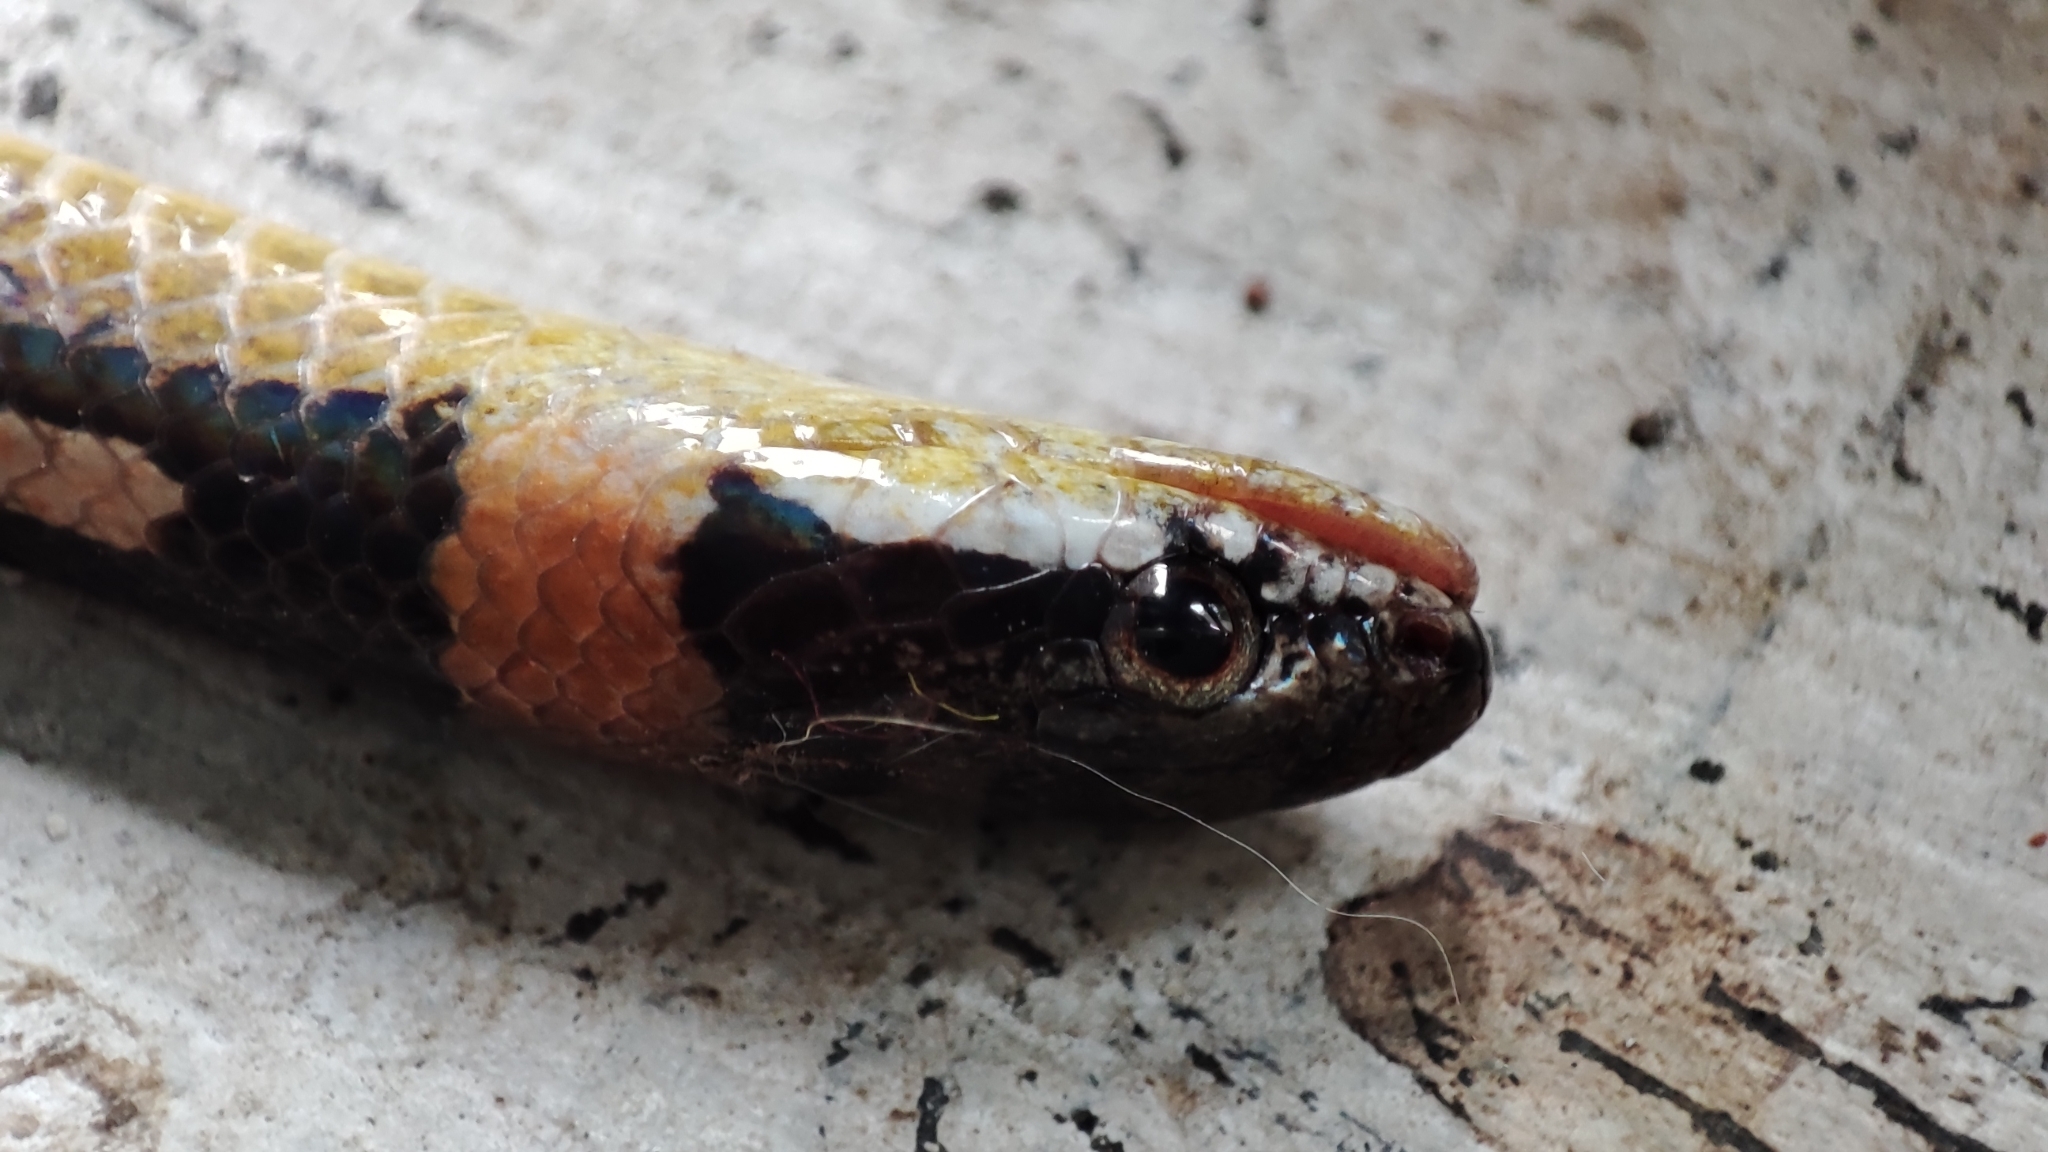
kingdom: Animalia
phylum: Chordata
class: Squamata
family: Colubridae
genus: Sibynophis
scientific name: Sibynophis geminatus
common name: Boie's many-tooth snake
